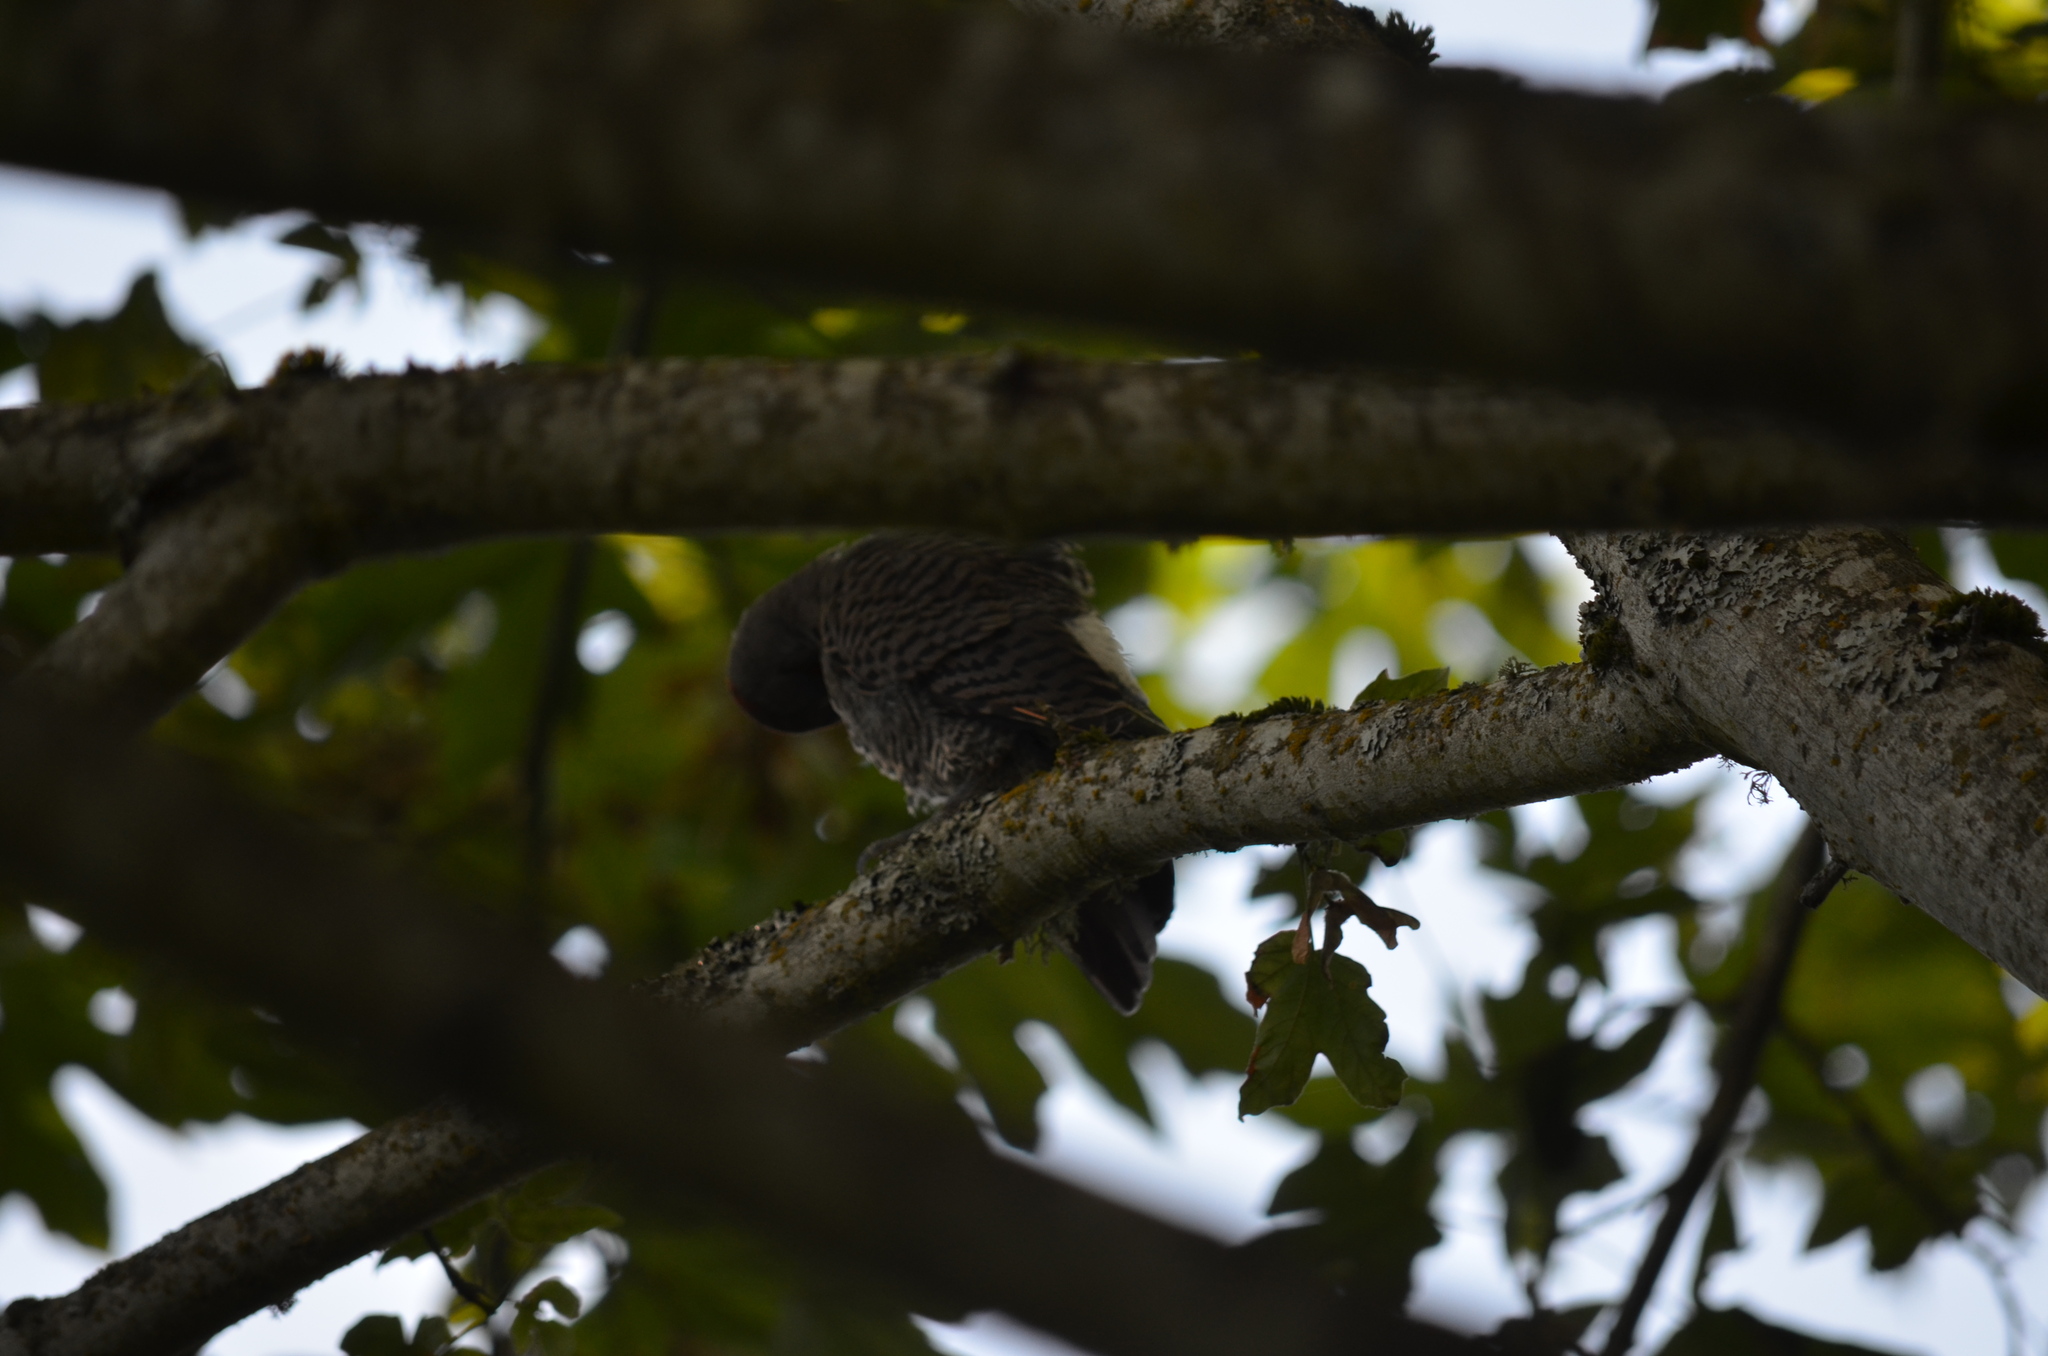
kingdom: Animalia
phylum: Chordata
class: Aves
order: Piciformes
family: Picidae
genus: Colaptes
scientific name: Colaptes auratus
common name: Northern flicker
